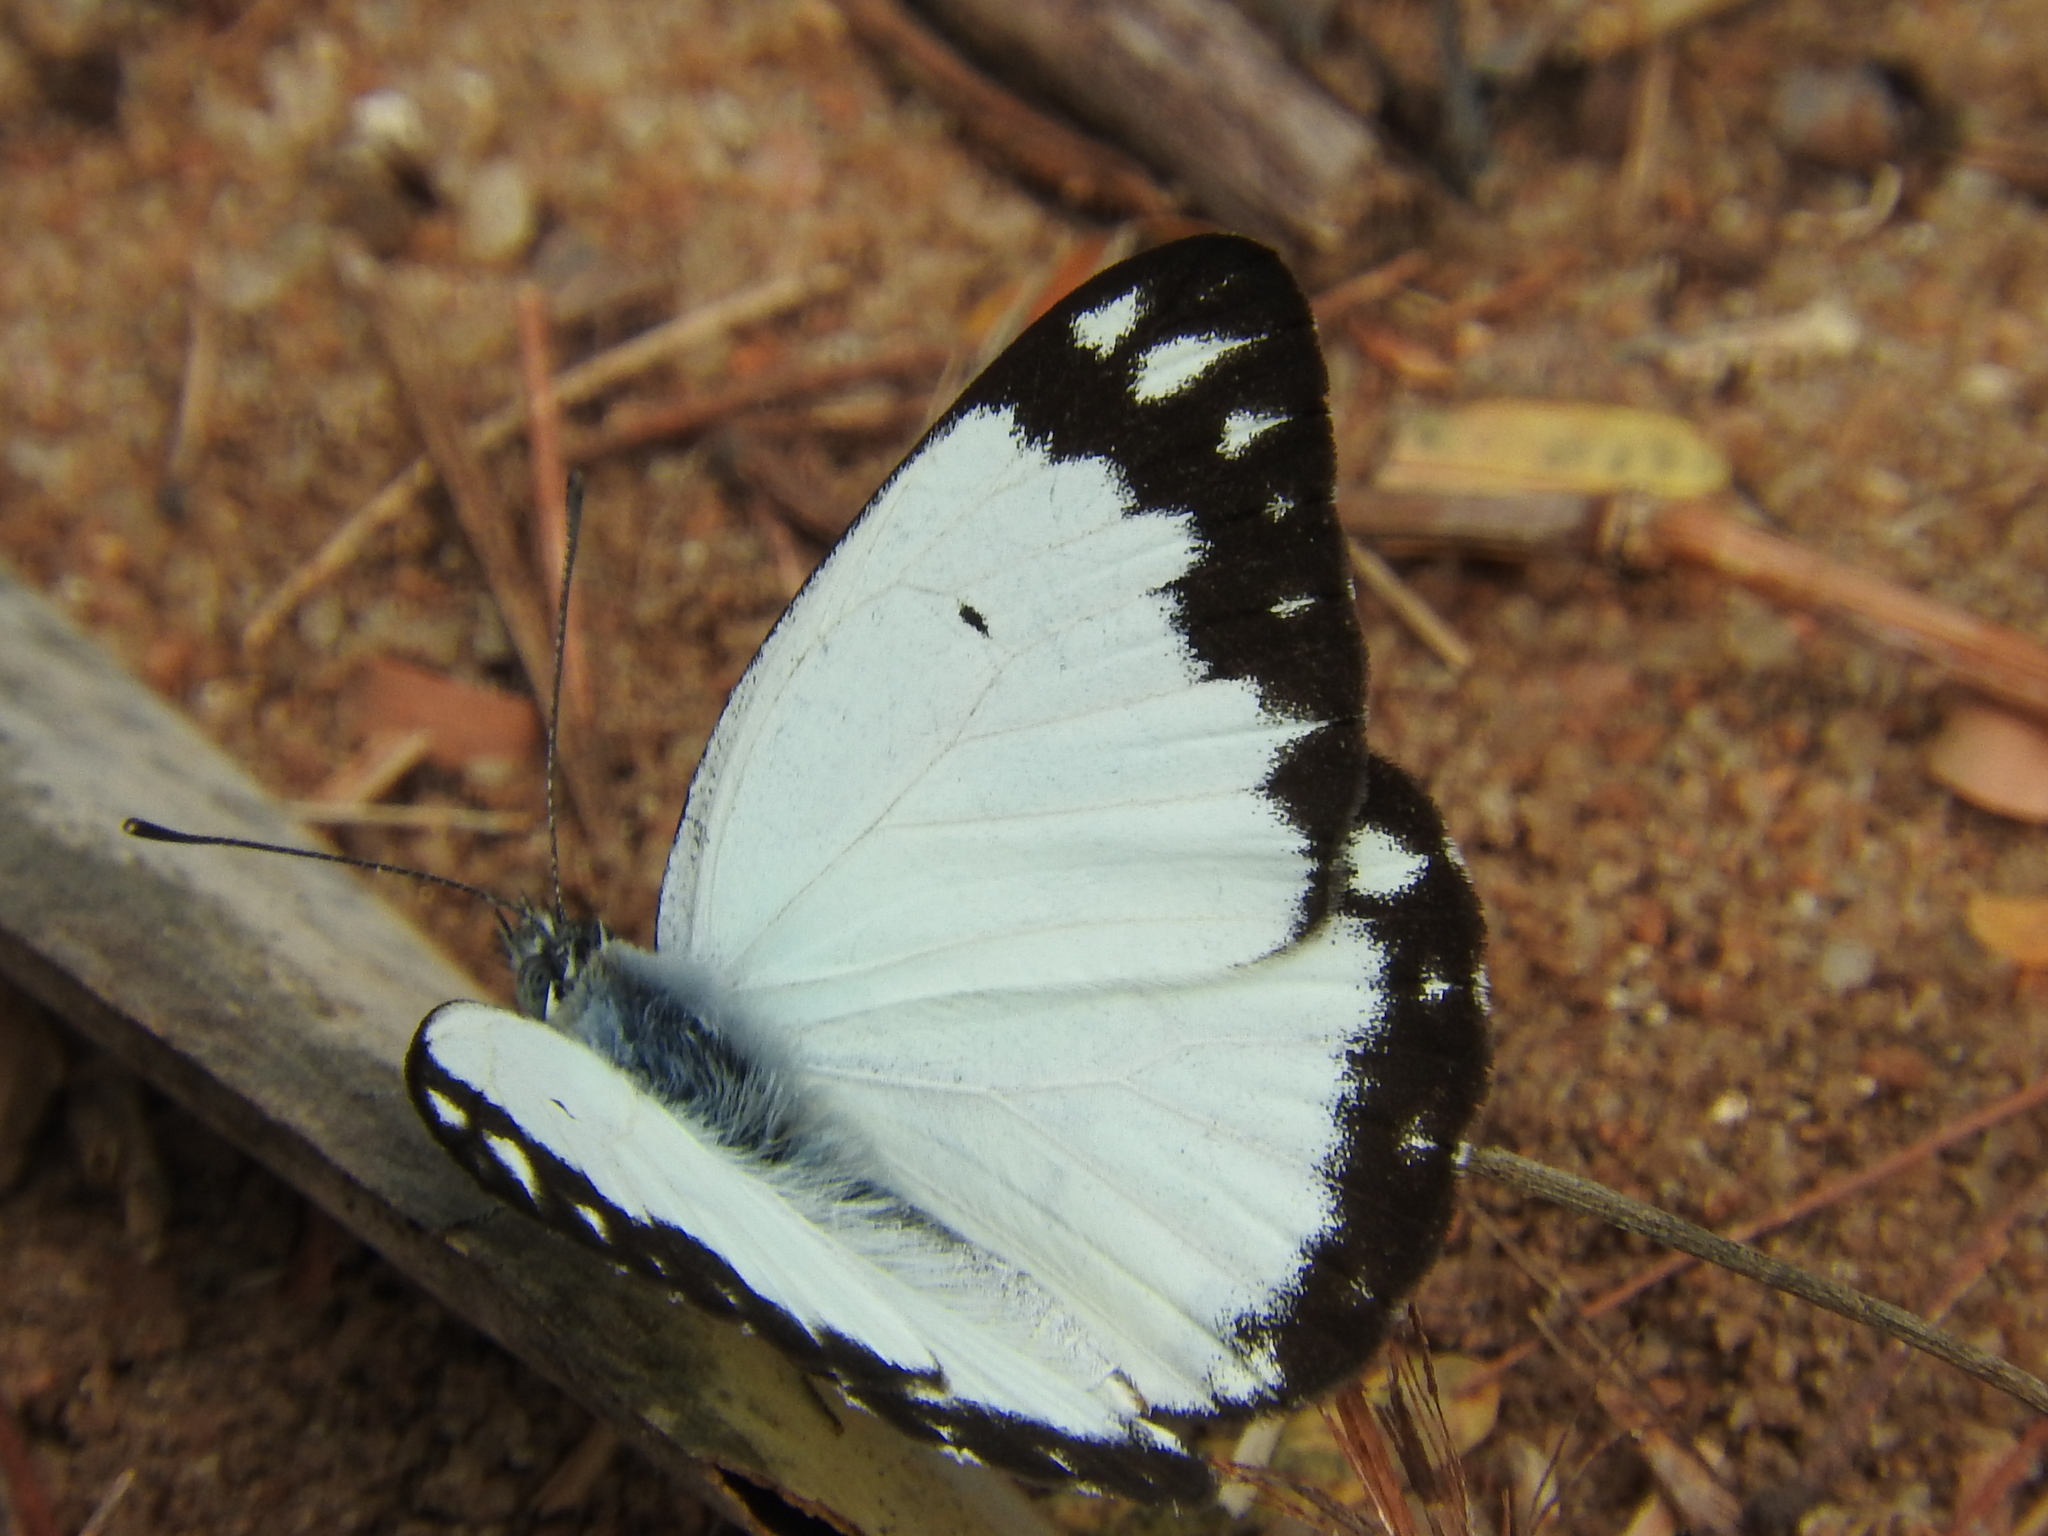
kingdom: Animalia
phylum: Arthropoda
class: Insecta
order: Lepidoptera
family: Pieridae
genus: Belenois
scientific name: Belenois creona
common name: African caper white
